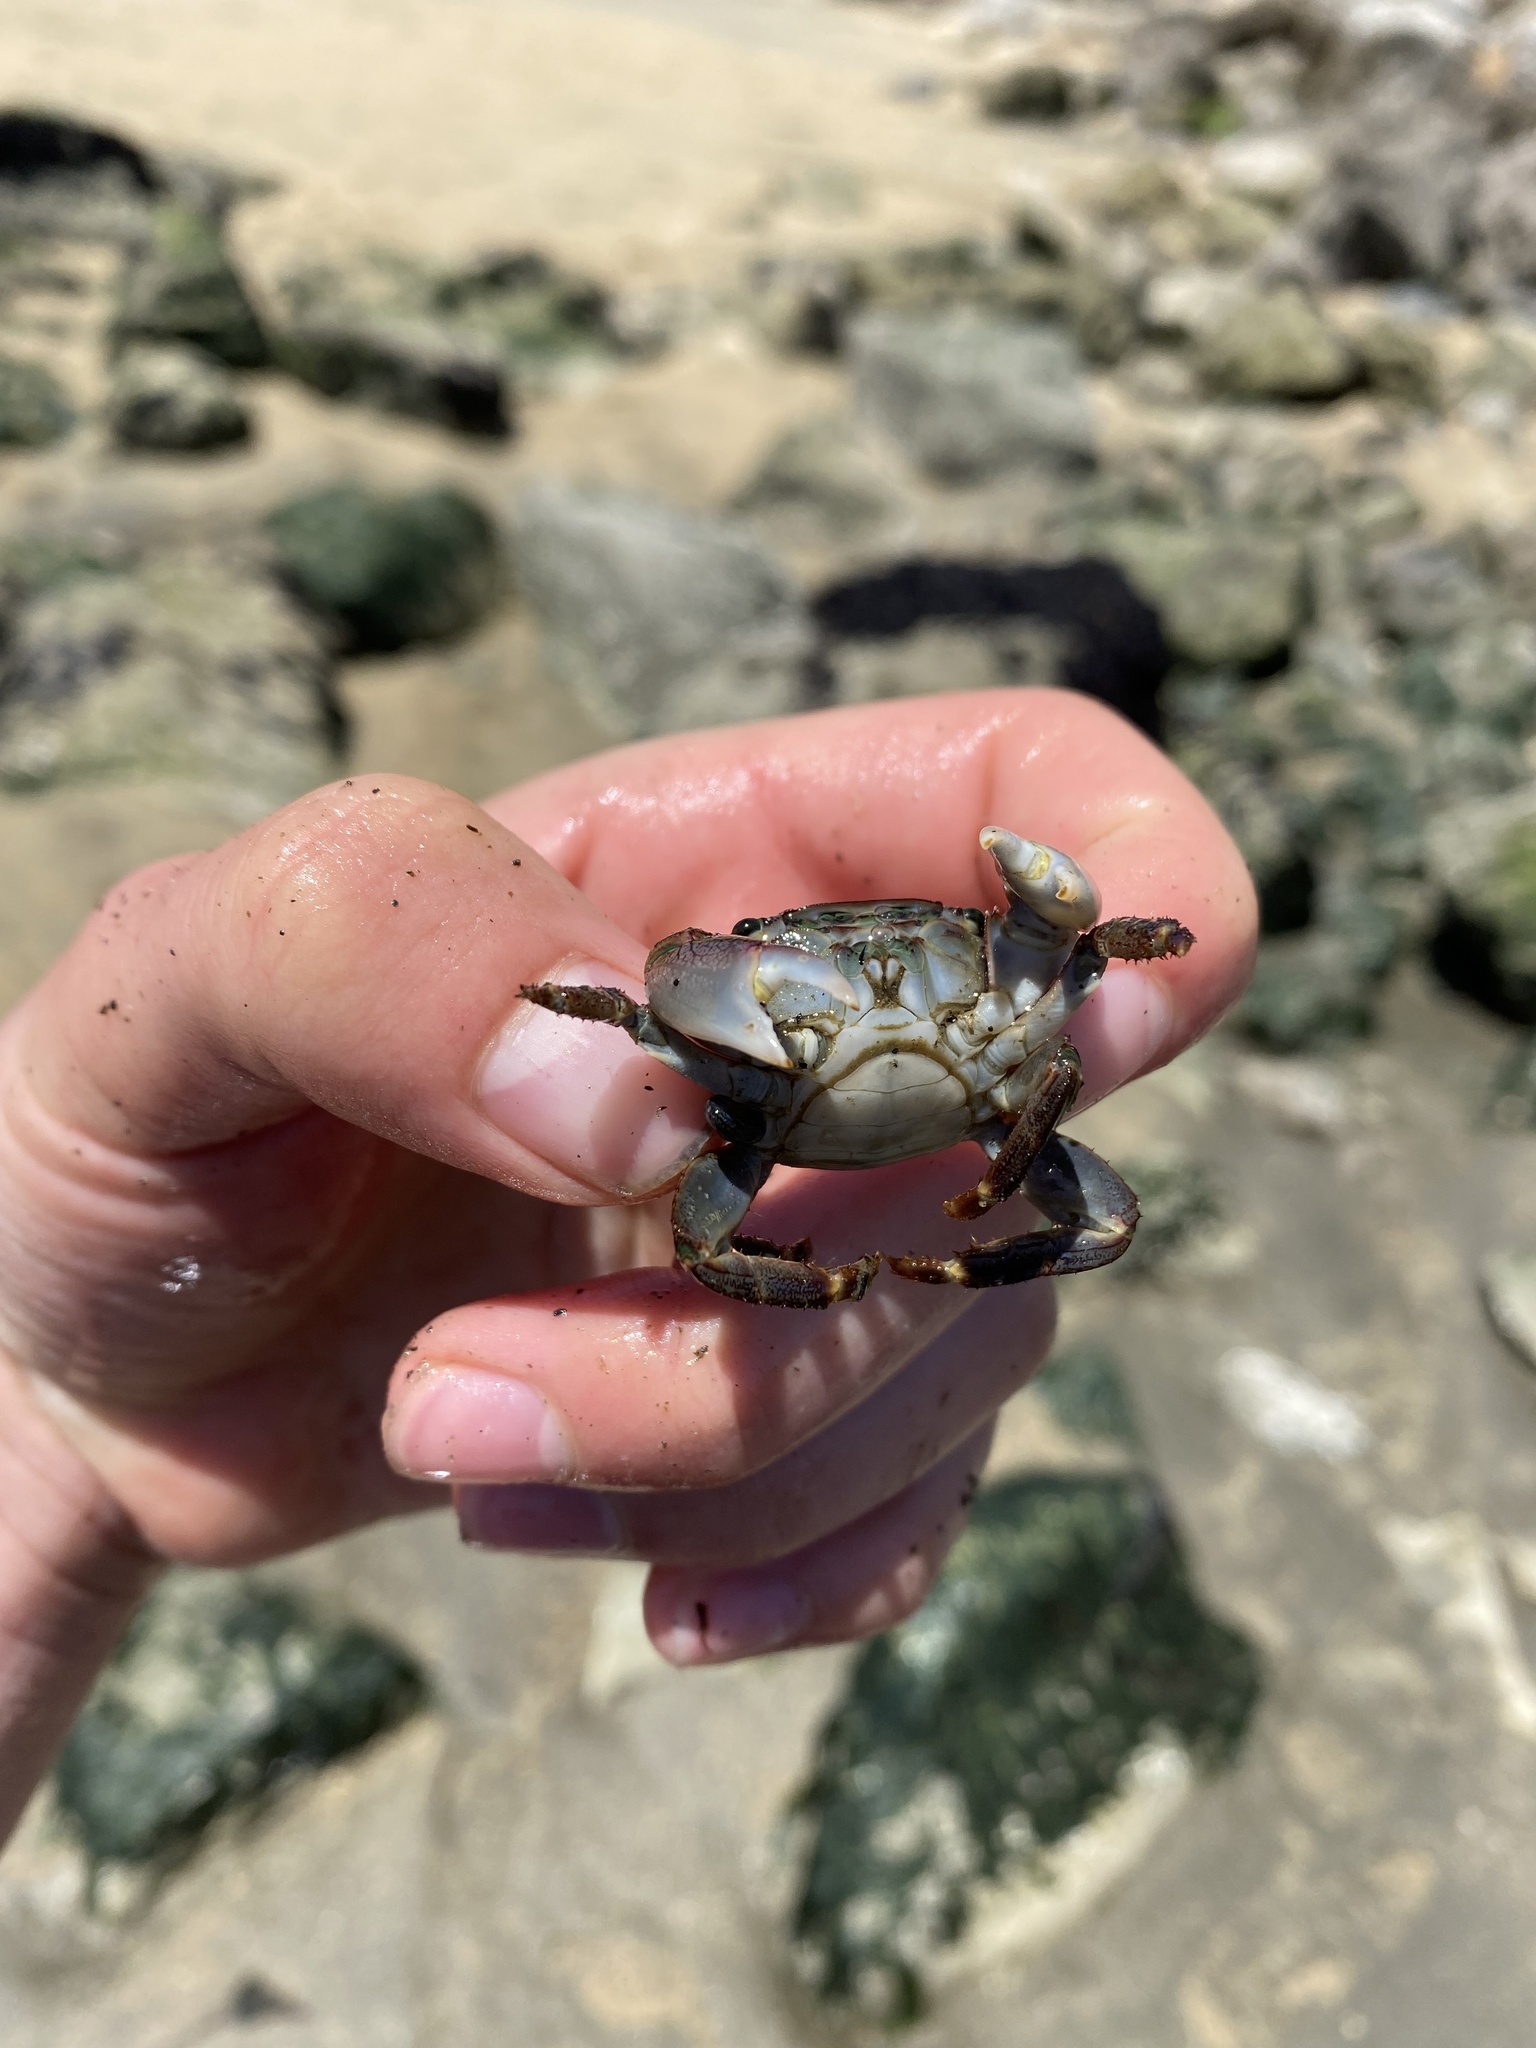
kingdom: Animalia
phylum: Arthropoda
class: Malacostraca
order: Decapoda
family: Grapsidae
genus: Pachygrapsus
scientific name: Pachygrapsus crassipes
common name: Striped shore crab
